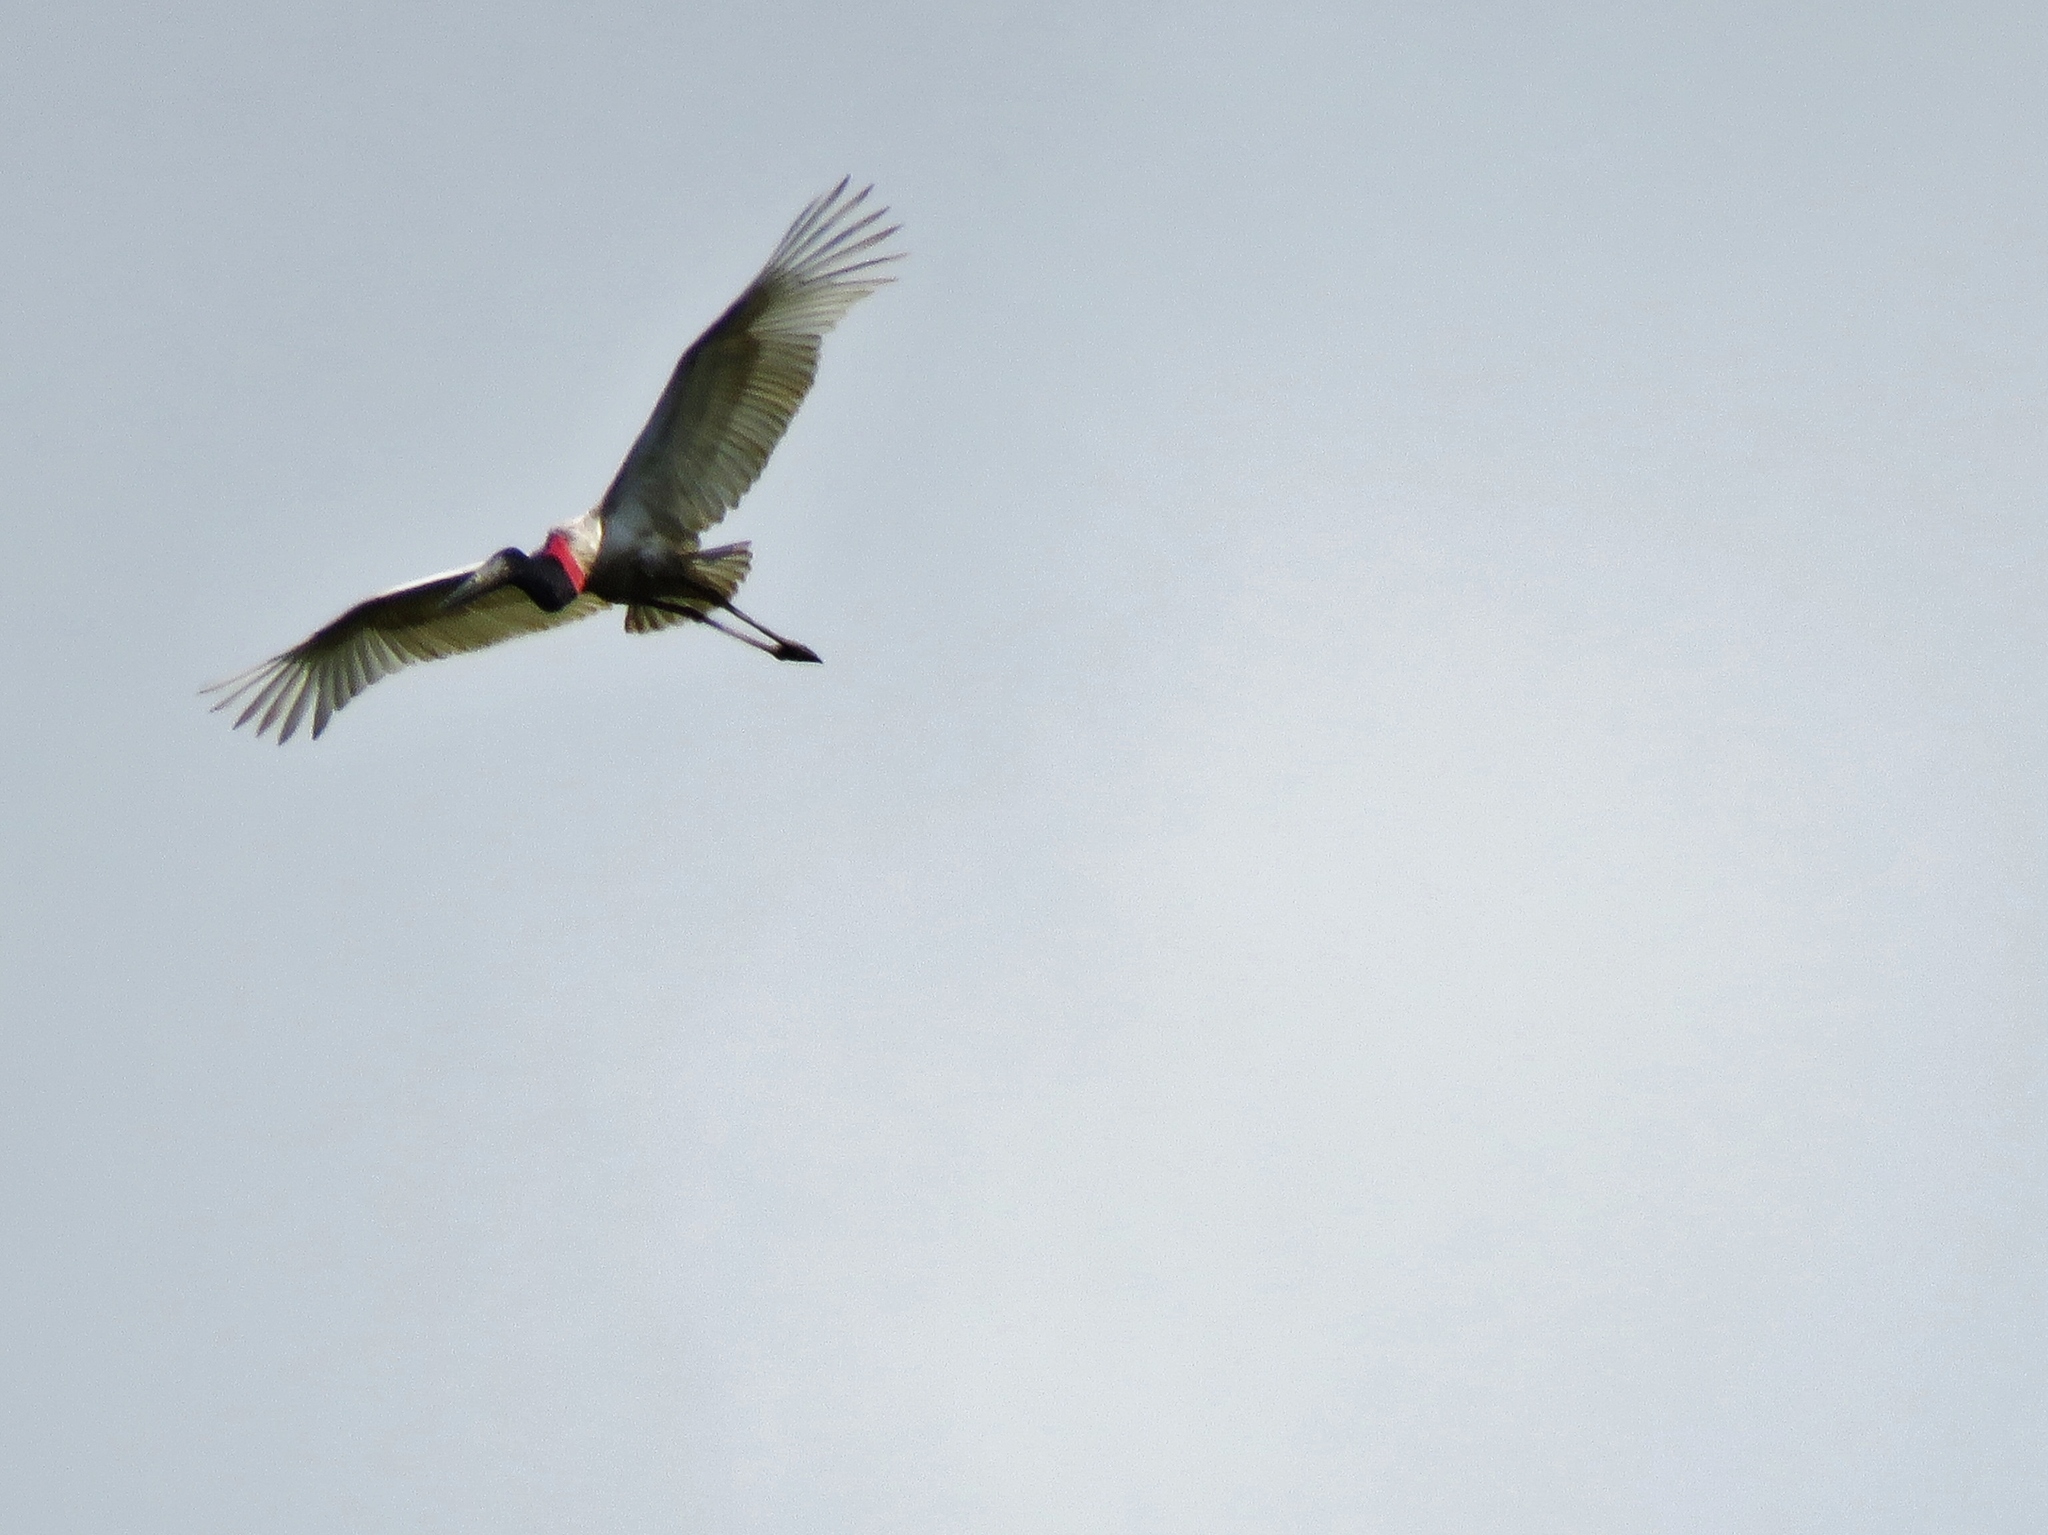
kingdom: Animalia
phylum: Chordata
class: Aves
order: Ciconiiformes
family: Ciconiidae
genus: Jabiru
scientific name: Jabiru mycteria
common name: Jabiru
